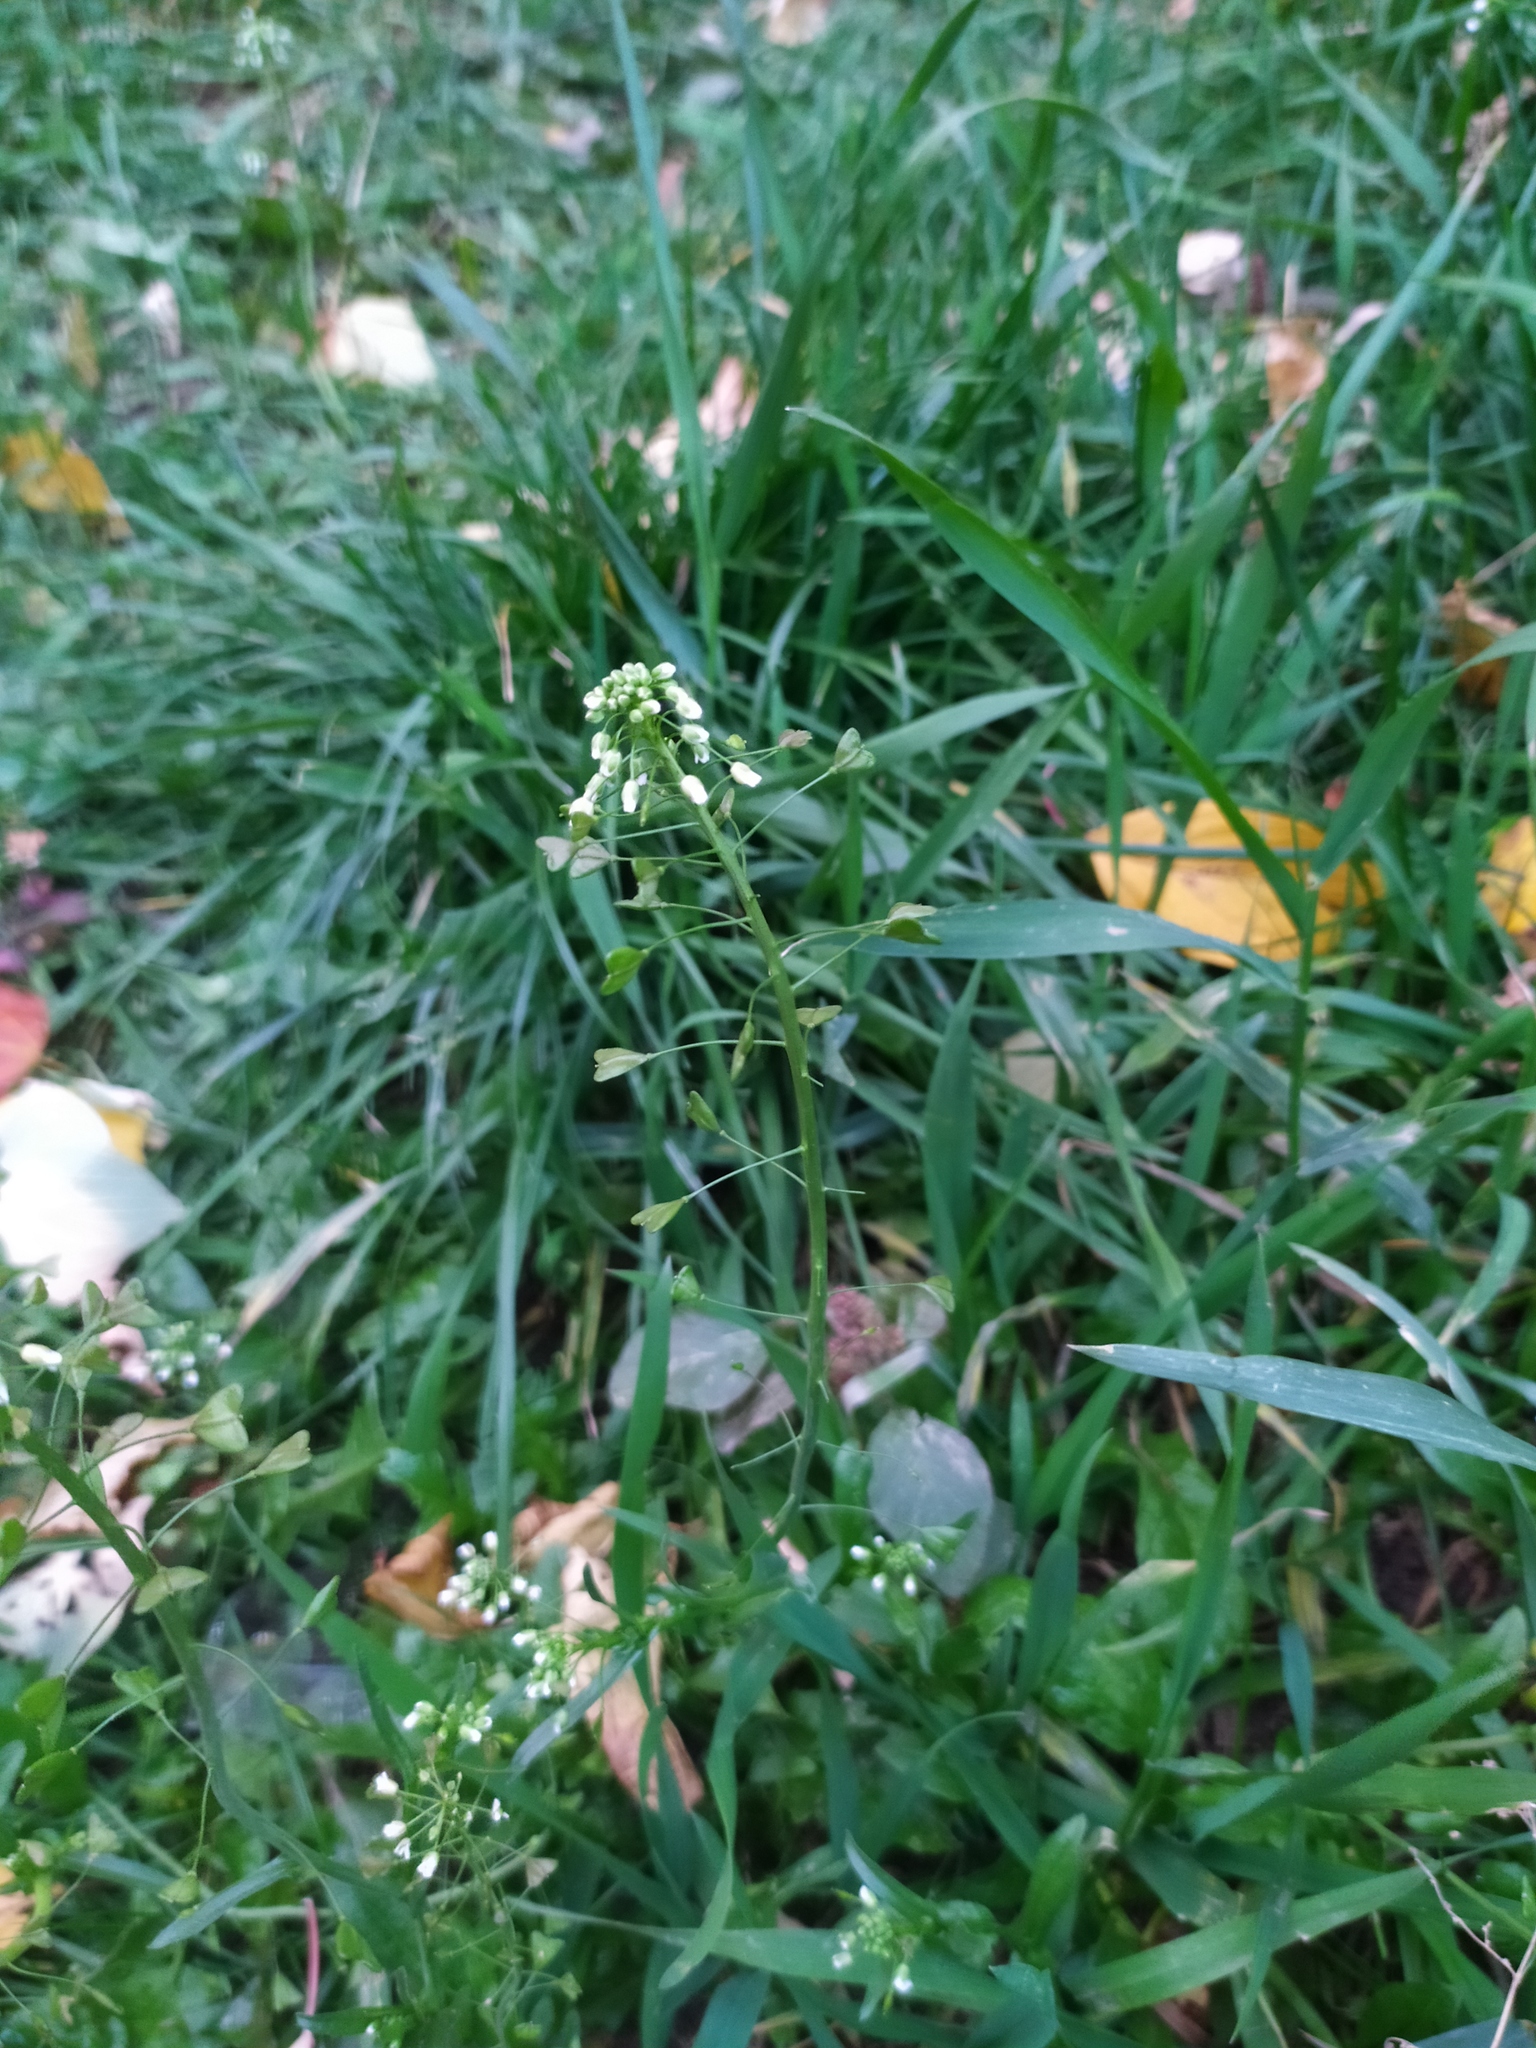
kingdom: Plantae
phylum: Tracheophyta
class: Magnoliopsida
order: Brassicales
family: Brassicaceae
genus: Capsella
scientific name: Capsella bursa-pastoris
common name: Shepherd's purse
